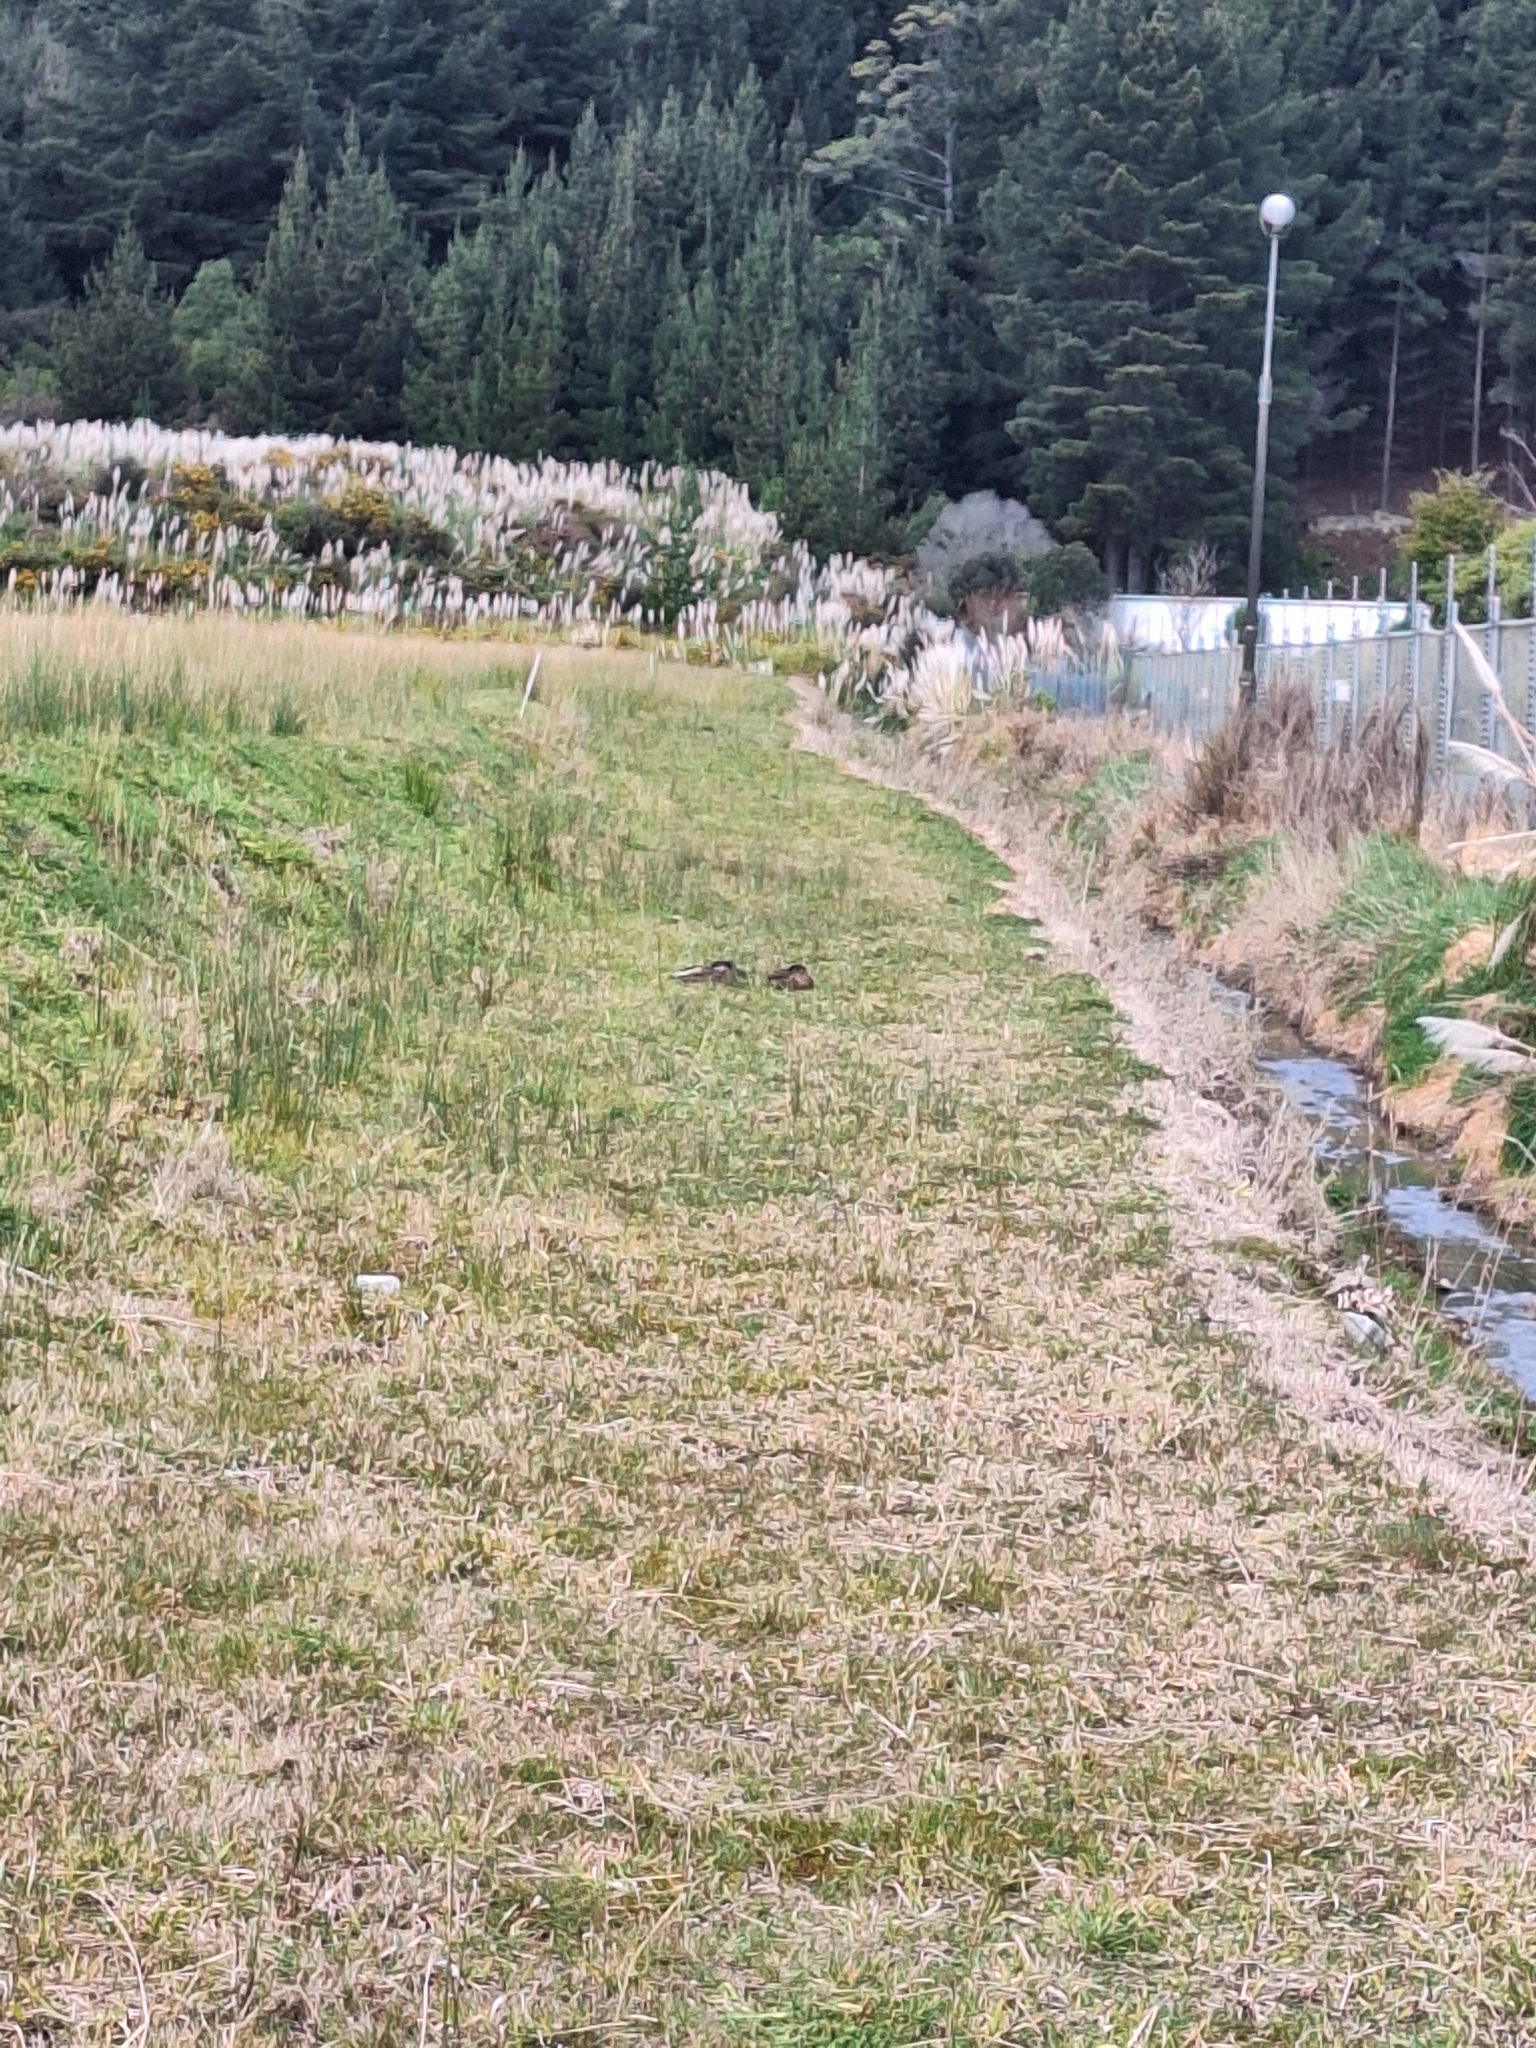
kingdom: Animalia
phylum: Chordata
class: Aves
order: Anseriformes
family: Anatidae
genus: Anas
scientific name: Anas
